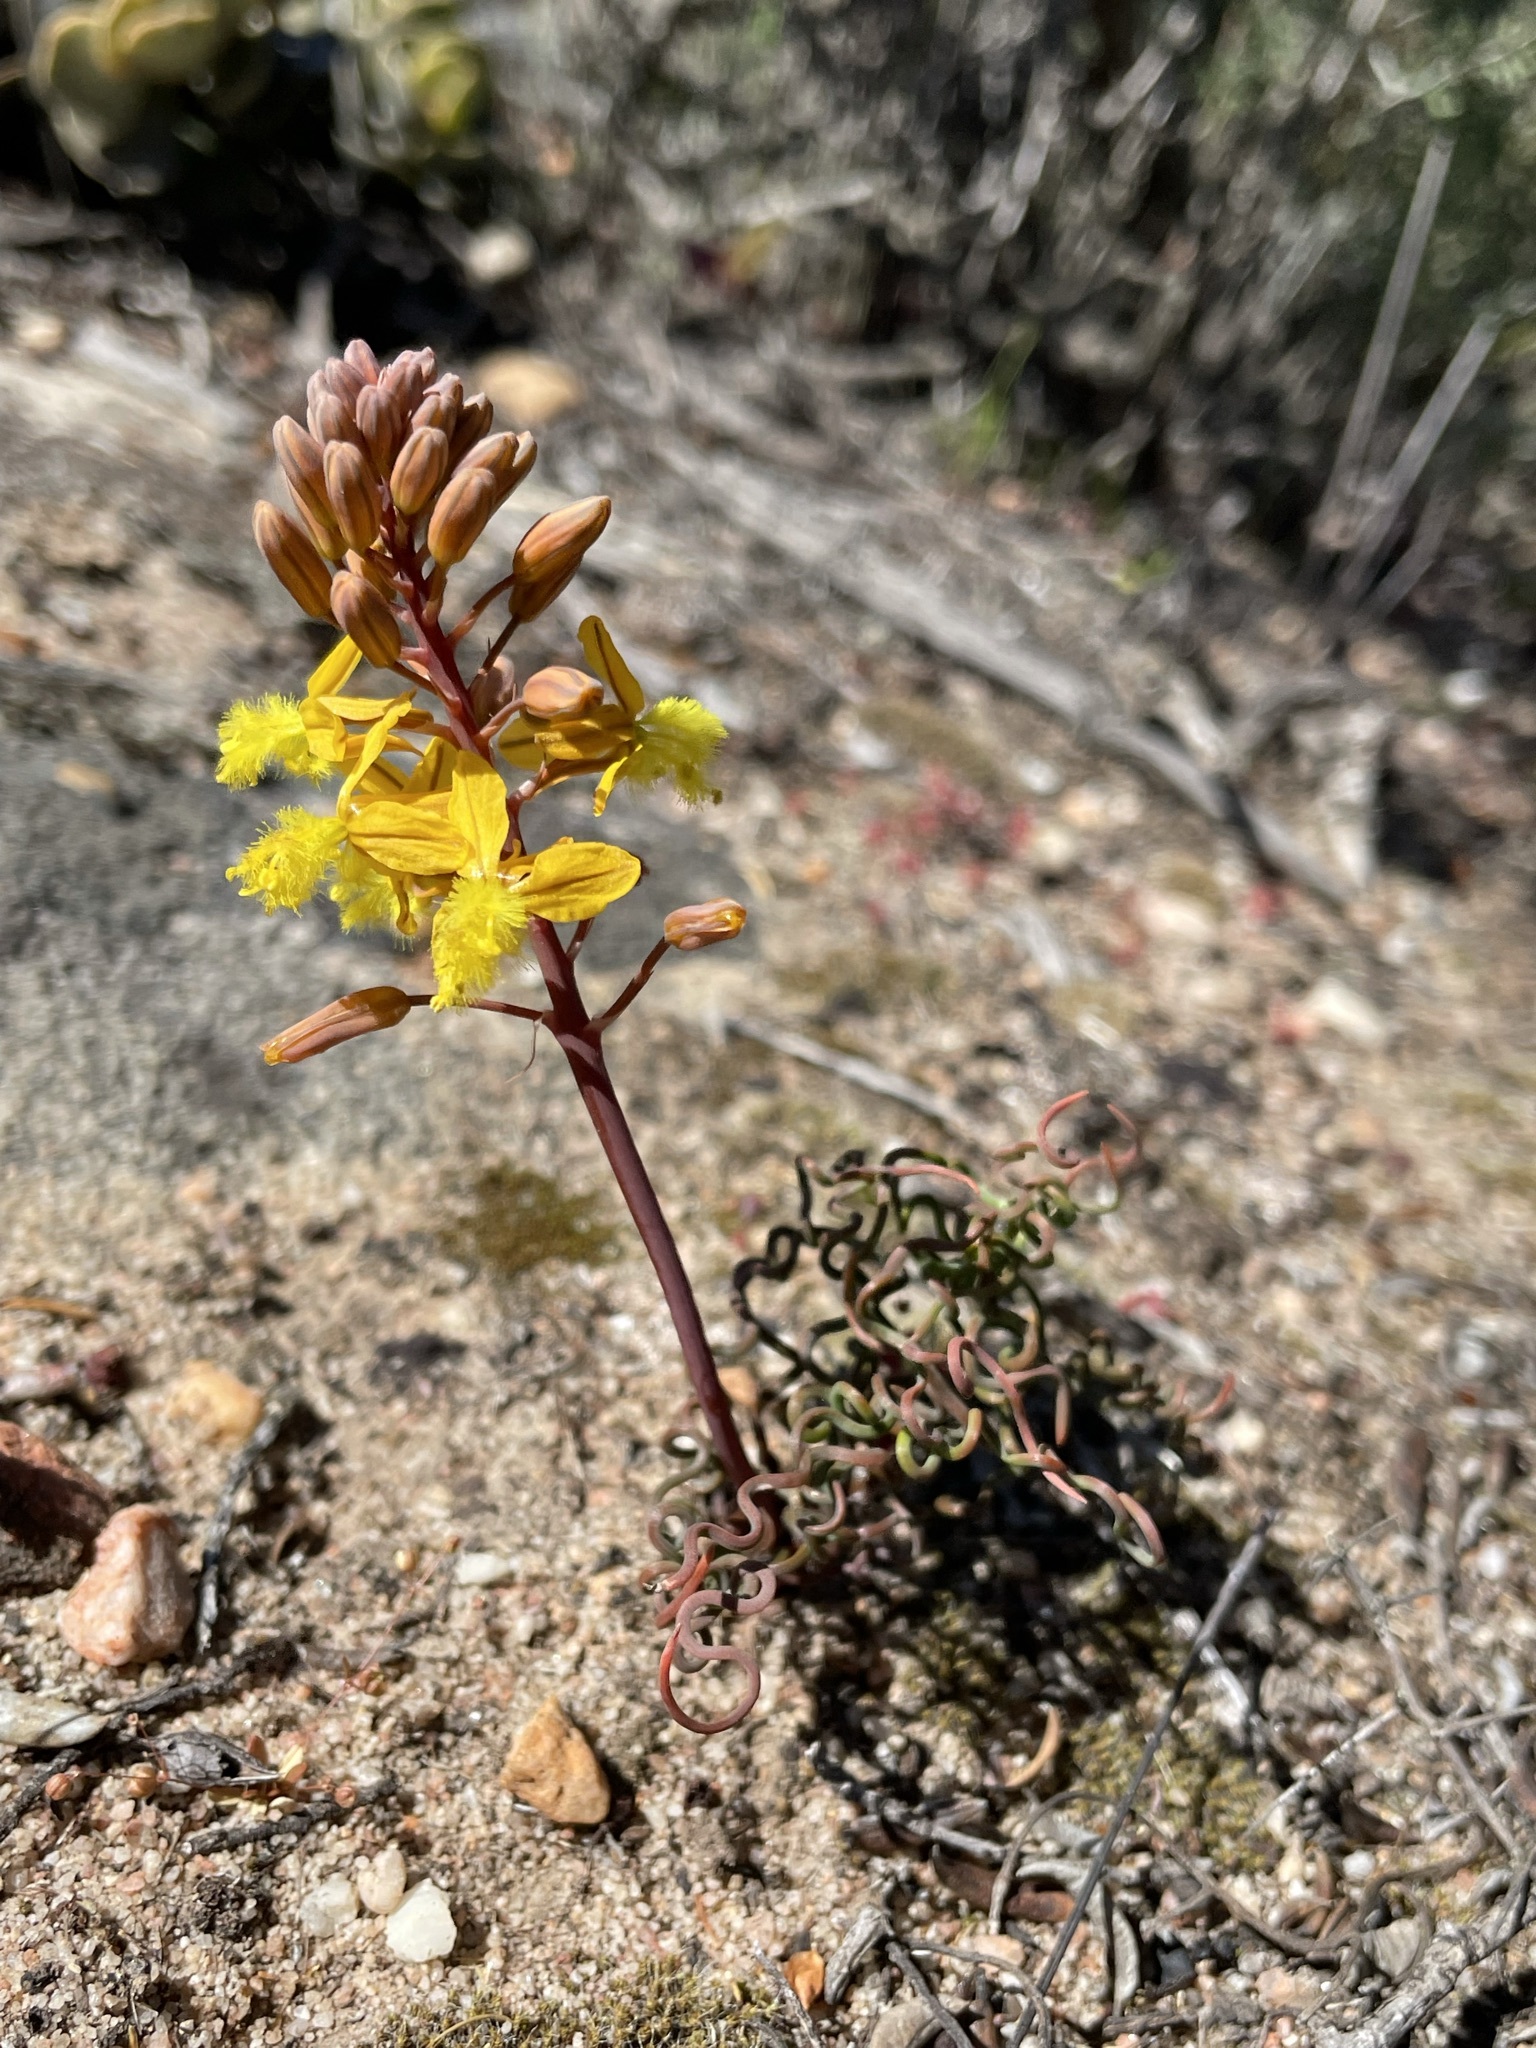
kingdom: Plantae
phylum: Tracheophyta
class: Liliopsida
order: Asparagales
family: Asphodelaceae
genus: Bulbine
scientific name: Bulbine torta
